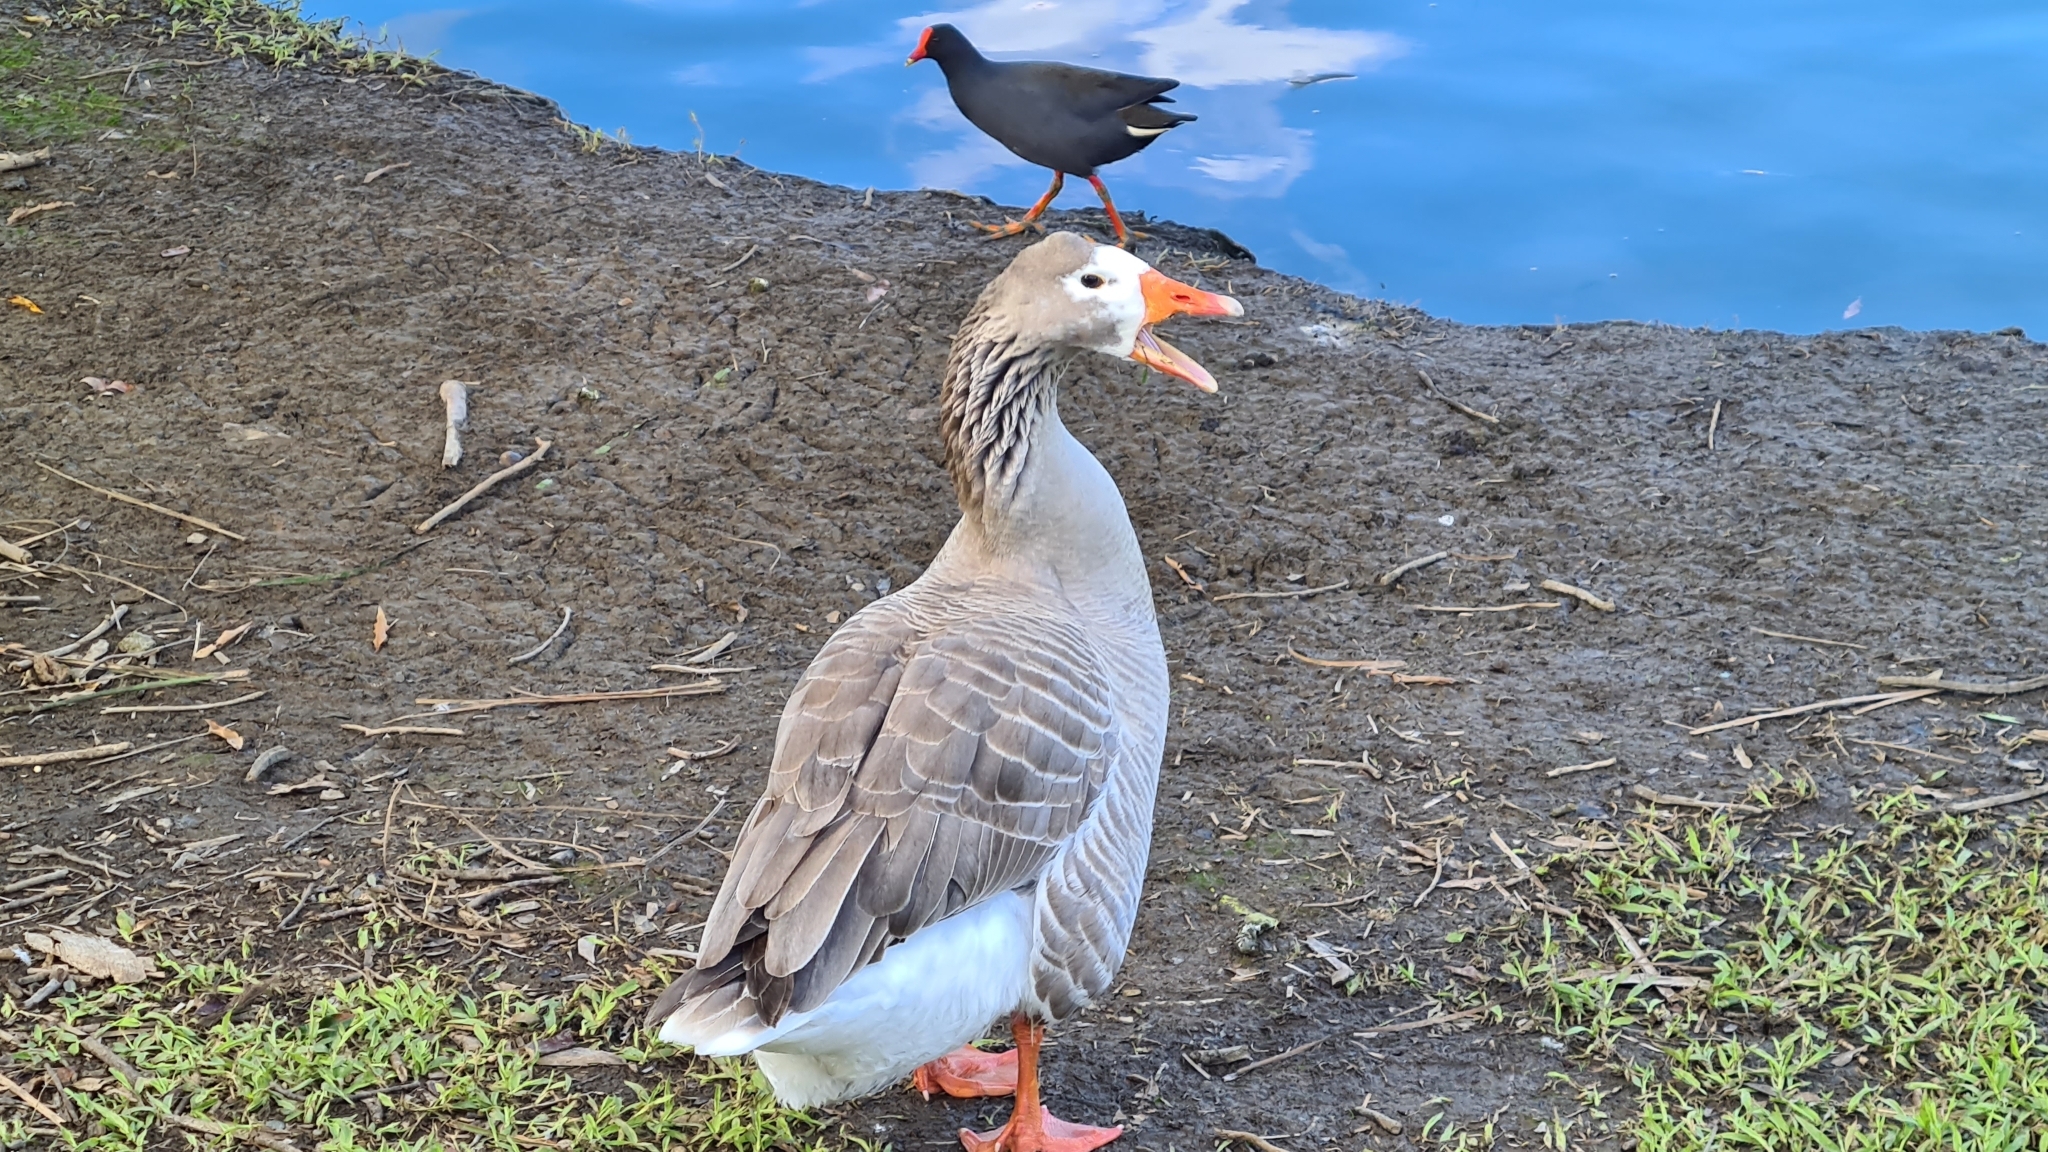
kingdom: Animalia
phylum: Chordata
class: Aves
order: Anseriformes
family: Anatidae
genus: Anser
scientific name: Anser anser
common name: Greylag goose
